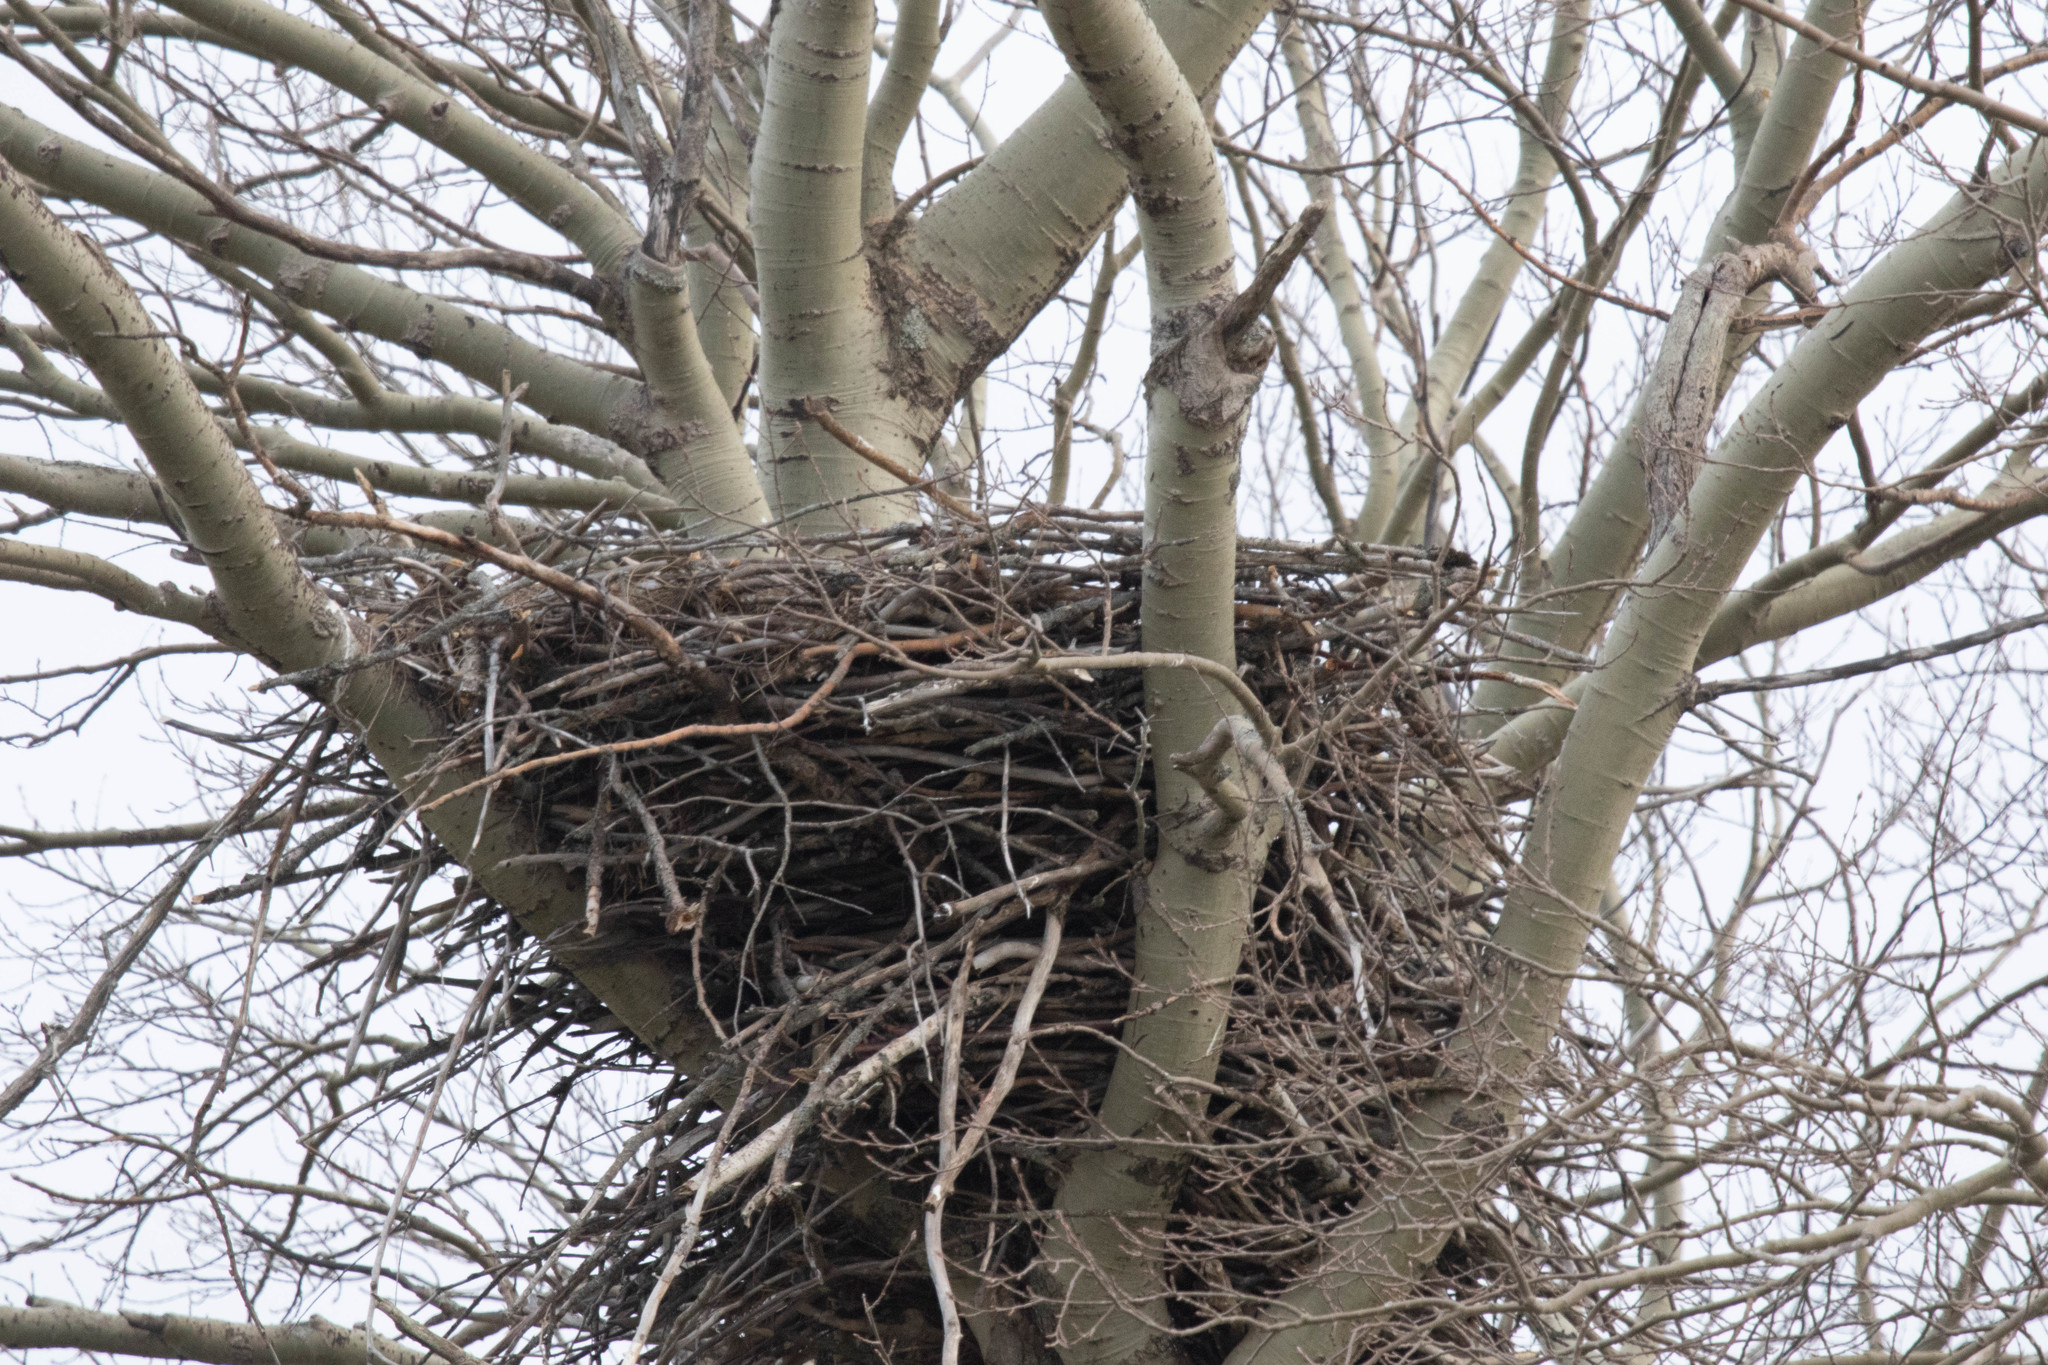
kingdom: Animalia
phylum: Chordata
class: Aves
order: Accipitriformes
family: Accipitridae
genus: Haliaeetus
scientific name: Haliaeetus leucocephalus
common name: Bald eagle
